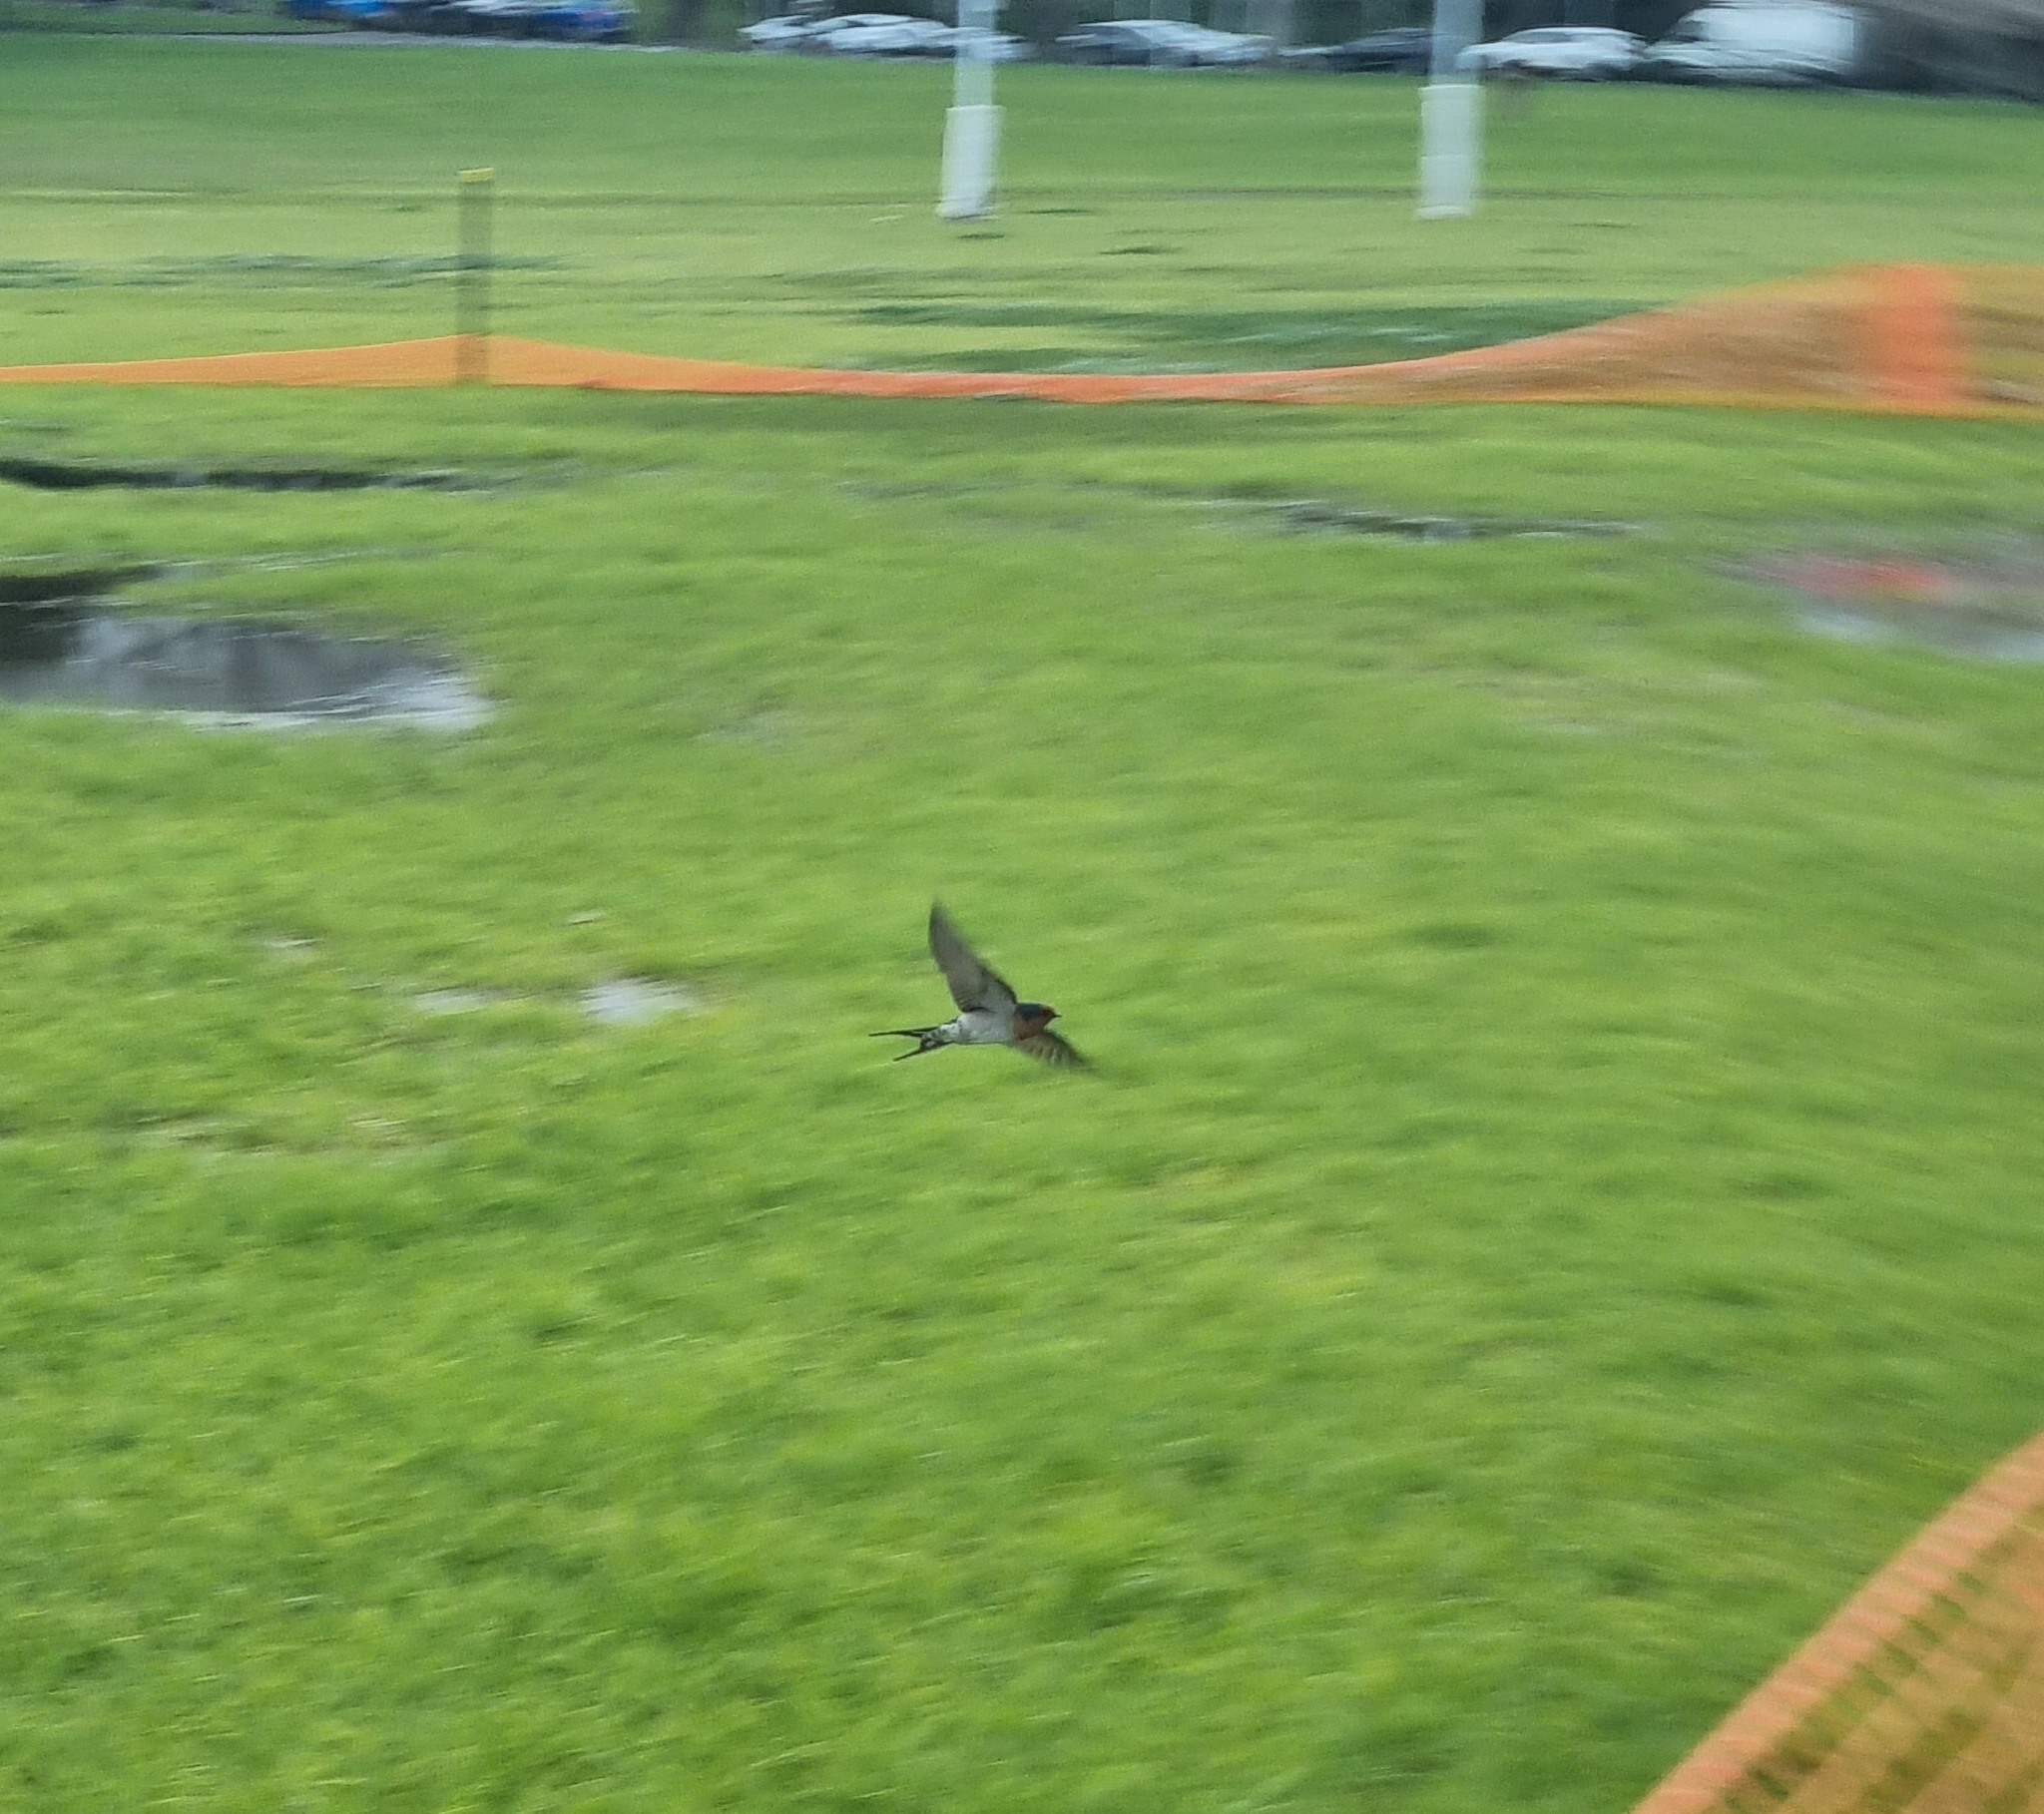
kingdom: Animalia
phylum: Chordata
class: Aves
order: Passeriformes
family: Hirundinidae
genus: Hirundo
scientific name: Hirundo neoxena
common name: Welcome swallow
